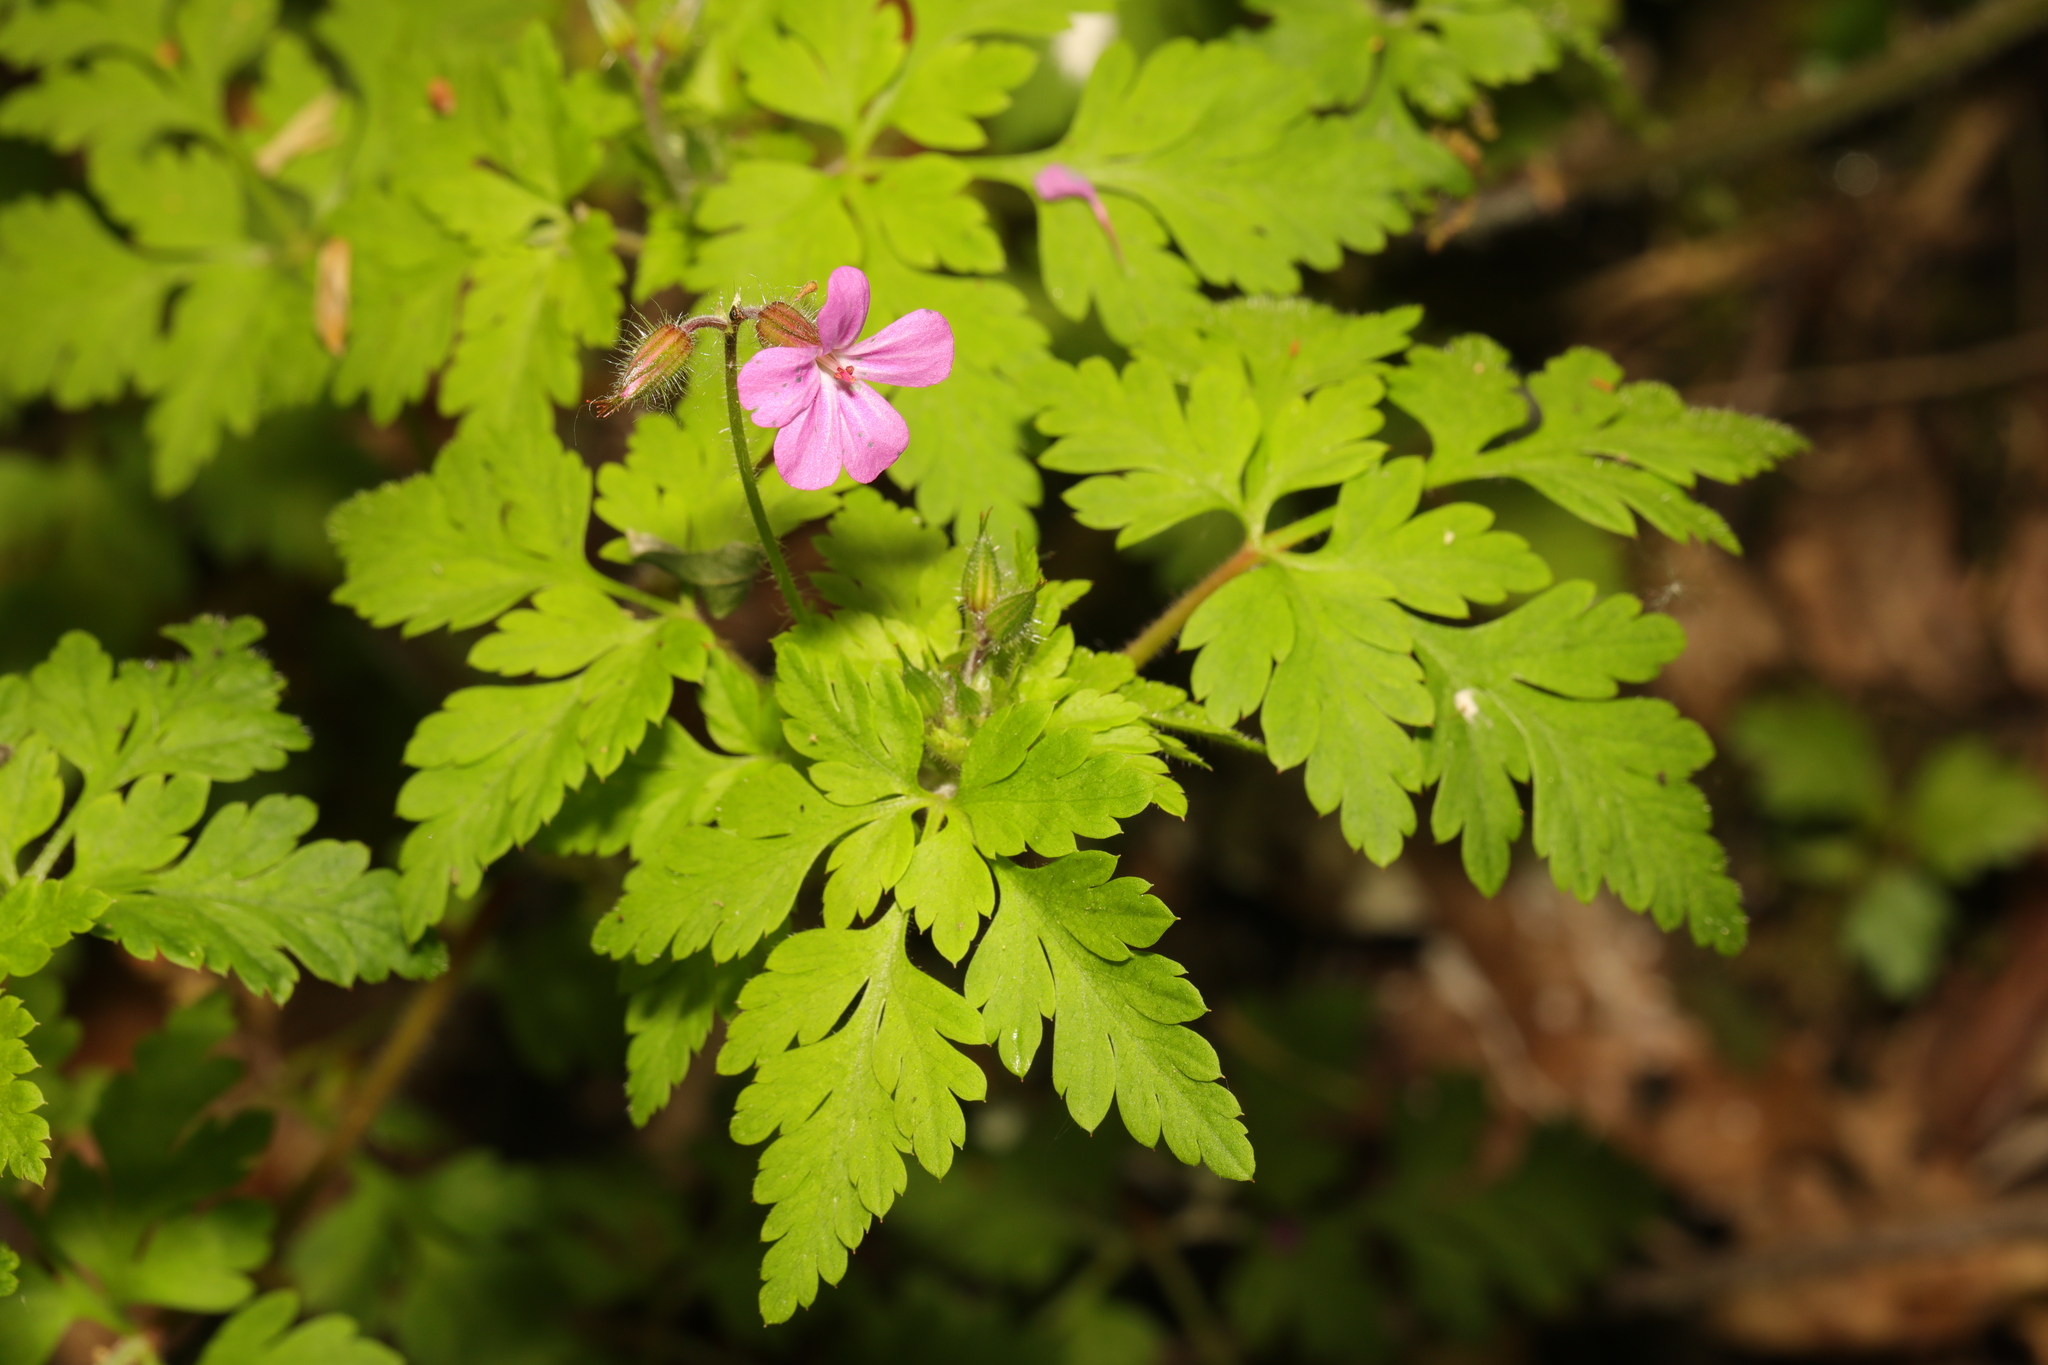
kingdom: Plantae
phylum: Tracheophyta
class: Magnoliopsida
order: Geraniales
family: Geraniaceae
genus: Geranium
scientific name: Geranium robertianum
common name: Herb-robert
